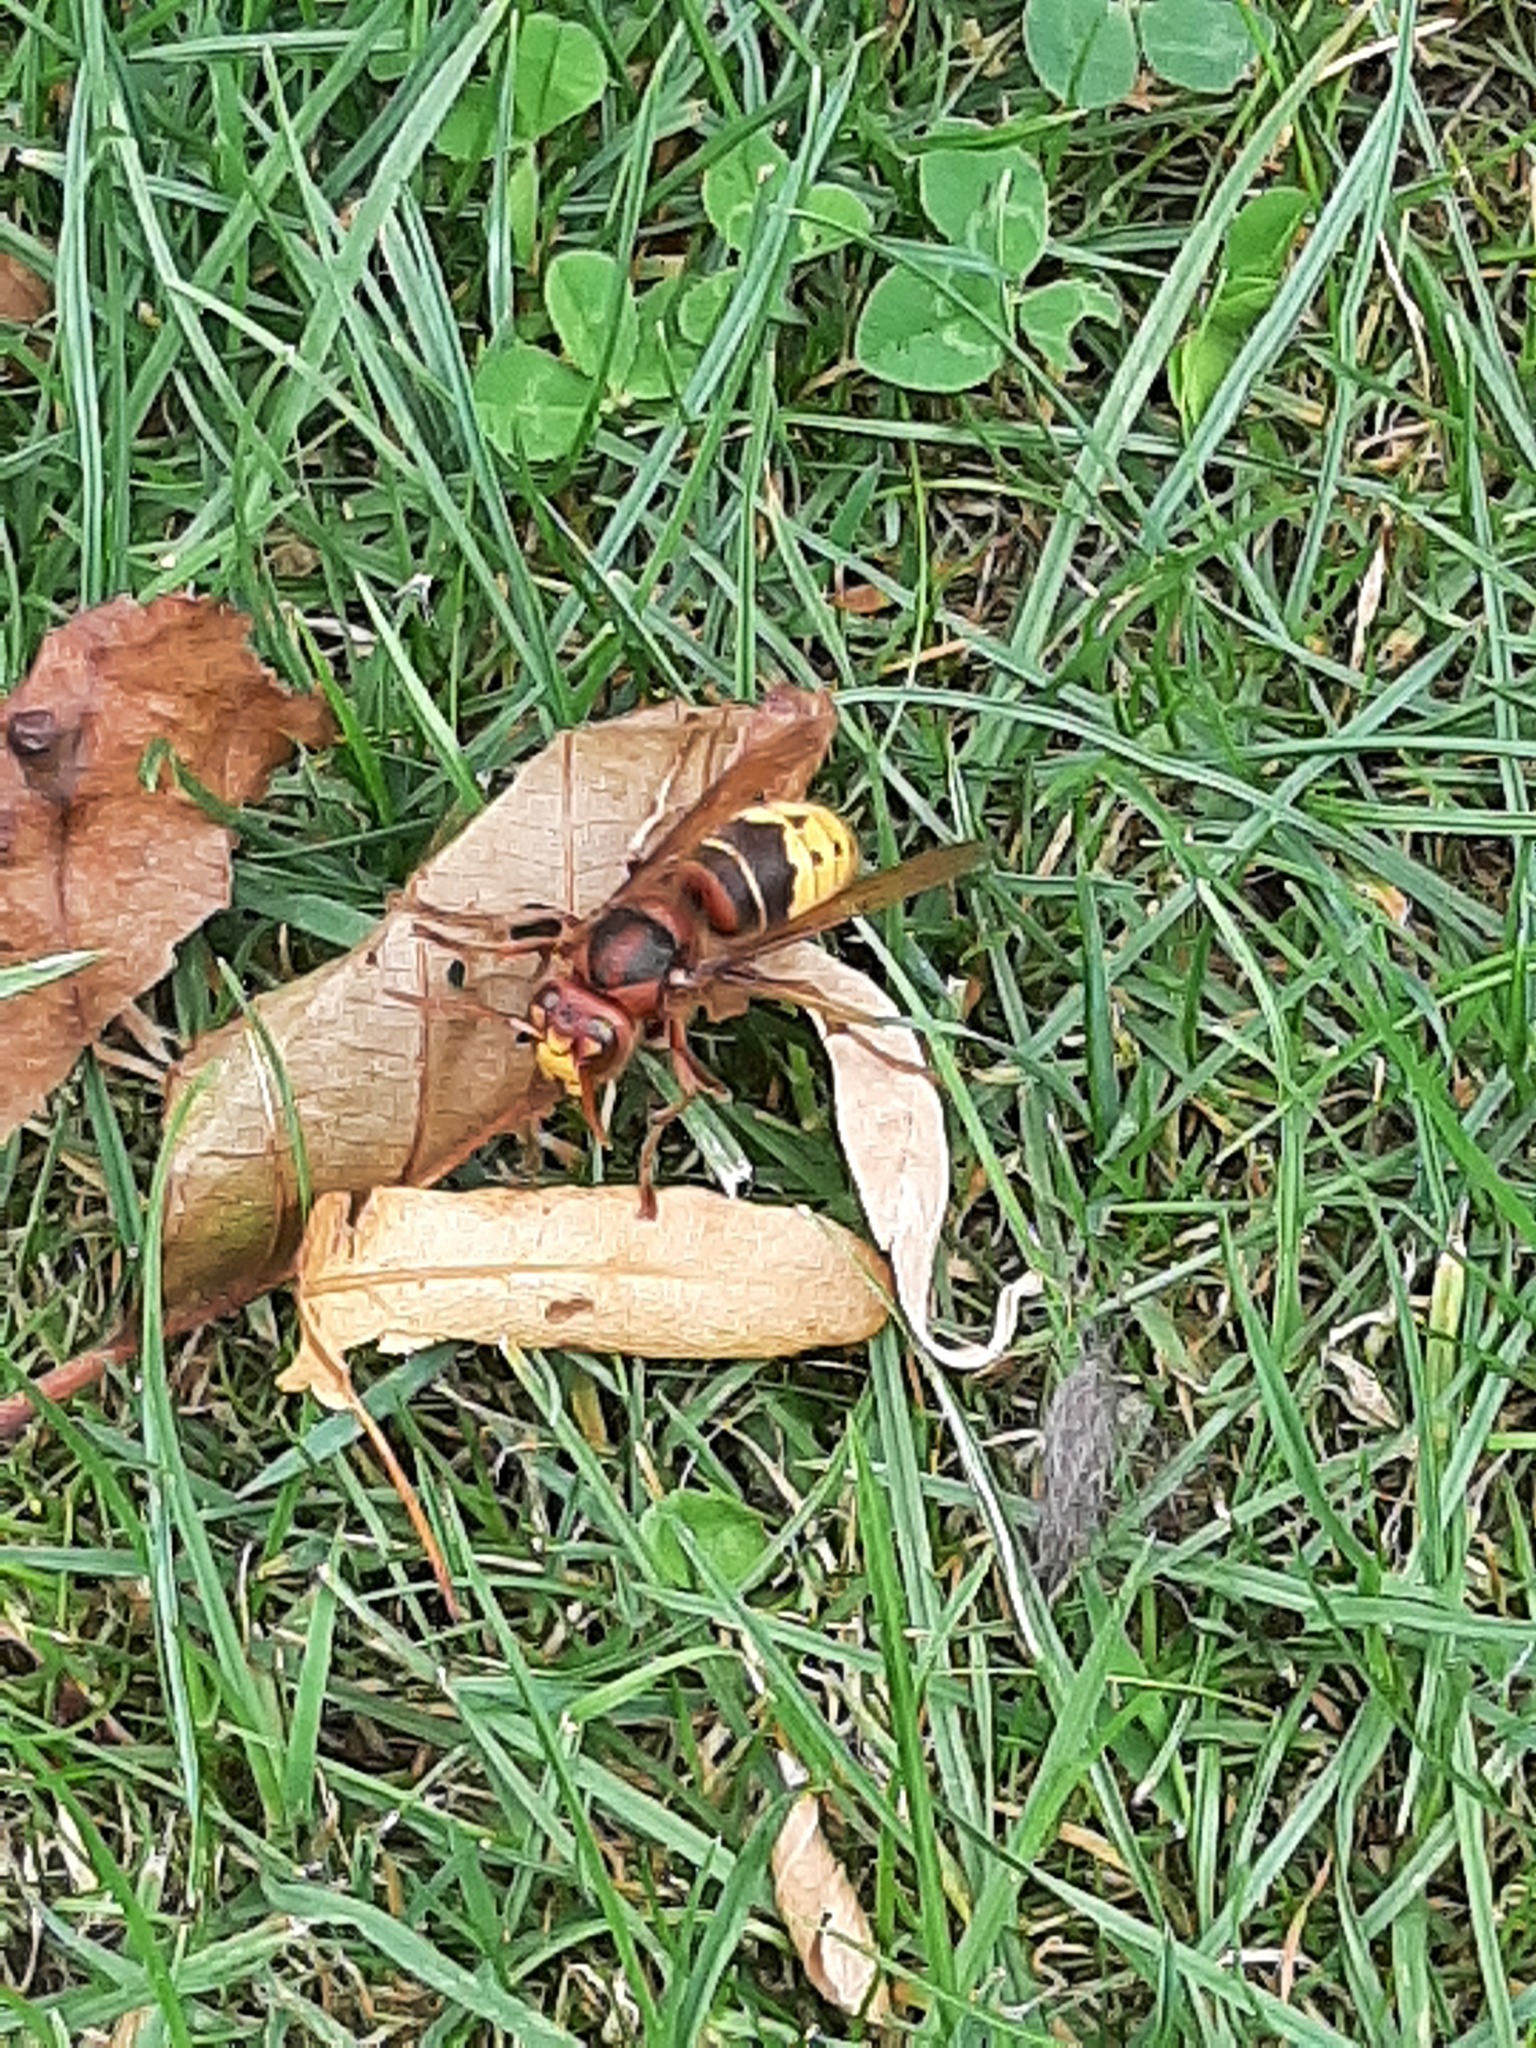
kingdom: Animalia
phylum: Arthropoda
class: Insecta
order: Hymenoptera
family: Vespidae
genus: Vespa
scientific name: Vespa crabro
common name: Hornet
